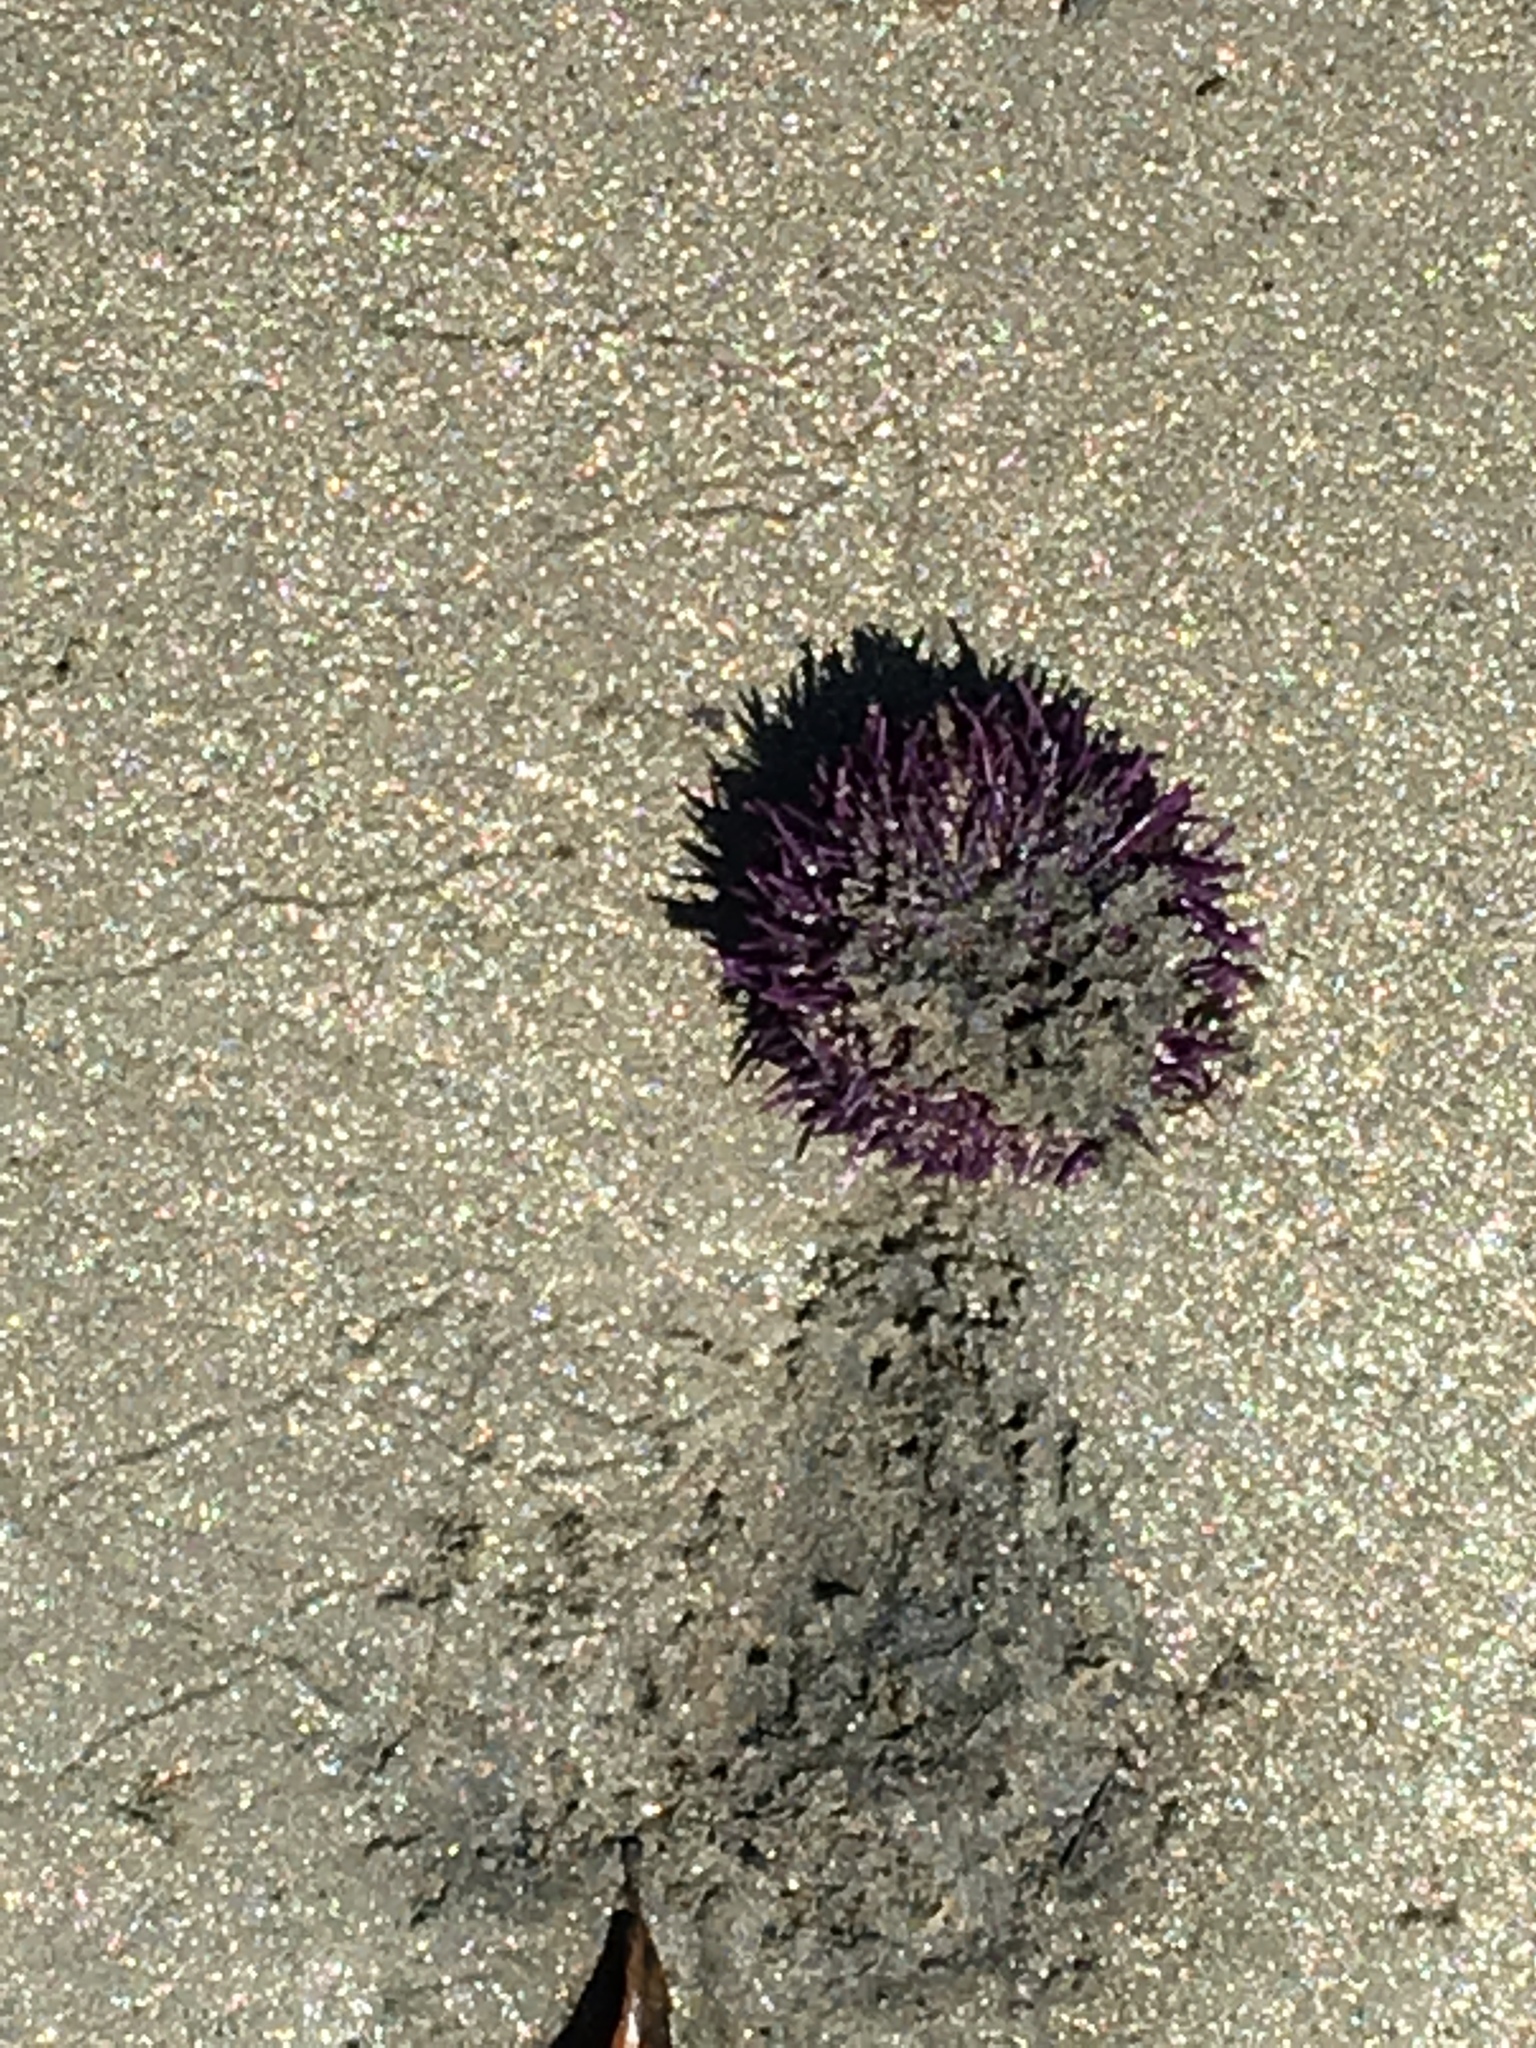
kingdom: Animalia
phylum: Echinodermata
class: Echinoidea
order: Camarodonta
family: Strongylocentrotidae
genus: Strongylocentrotus
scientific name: Strongylocentrotus purpuratus
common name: Purple sea urchin
